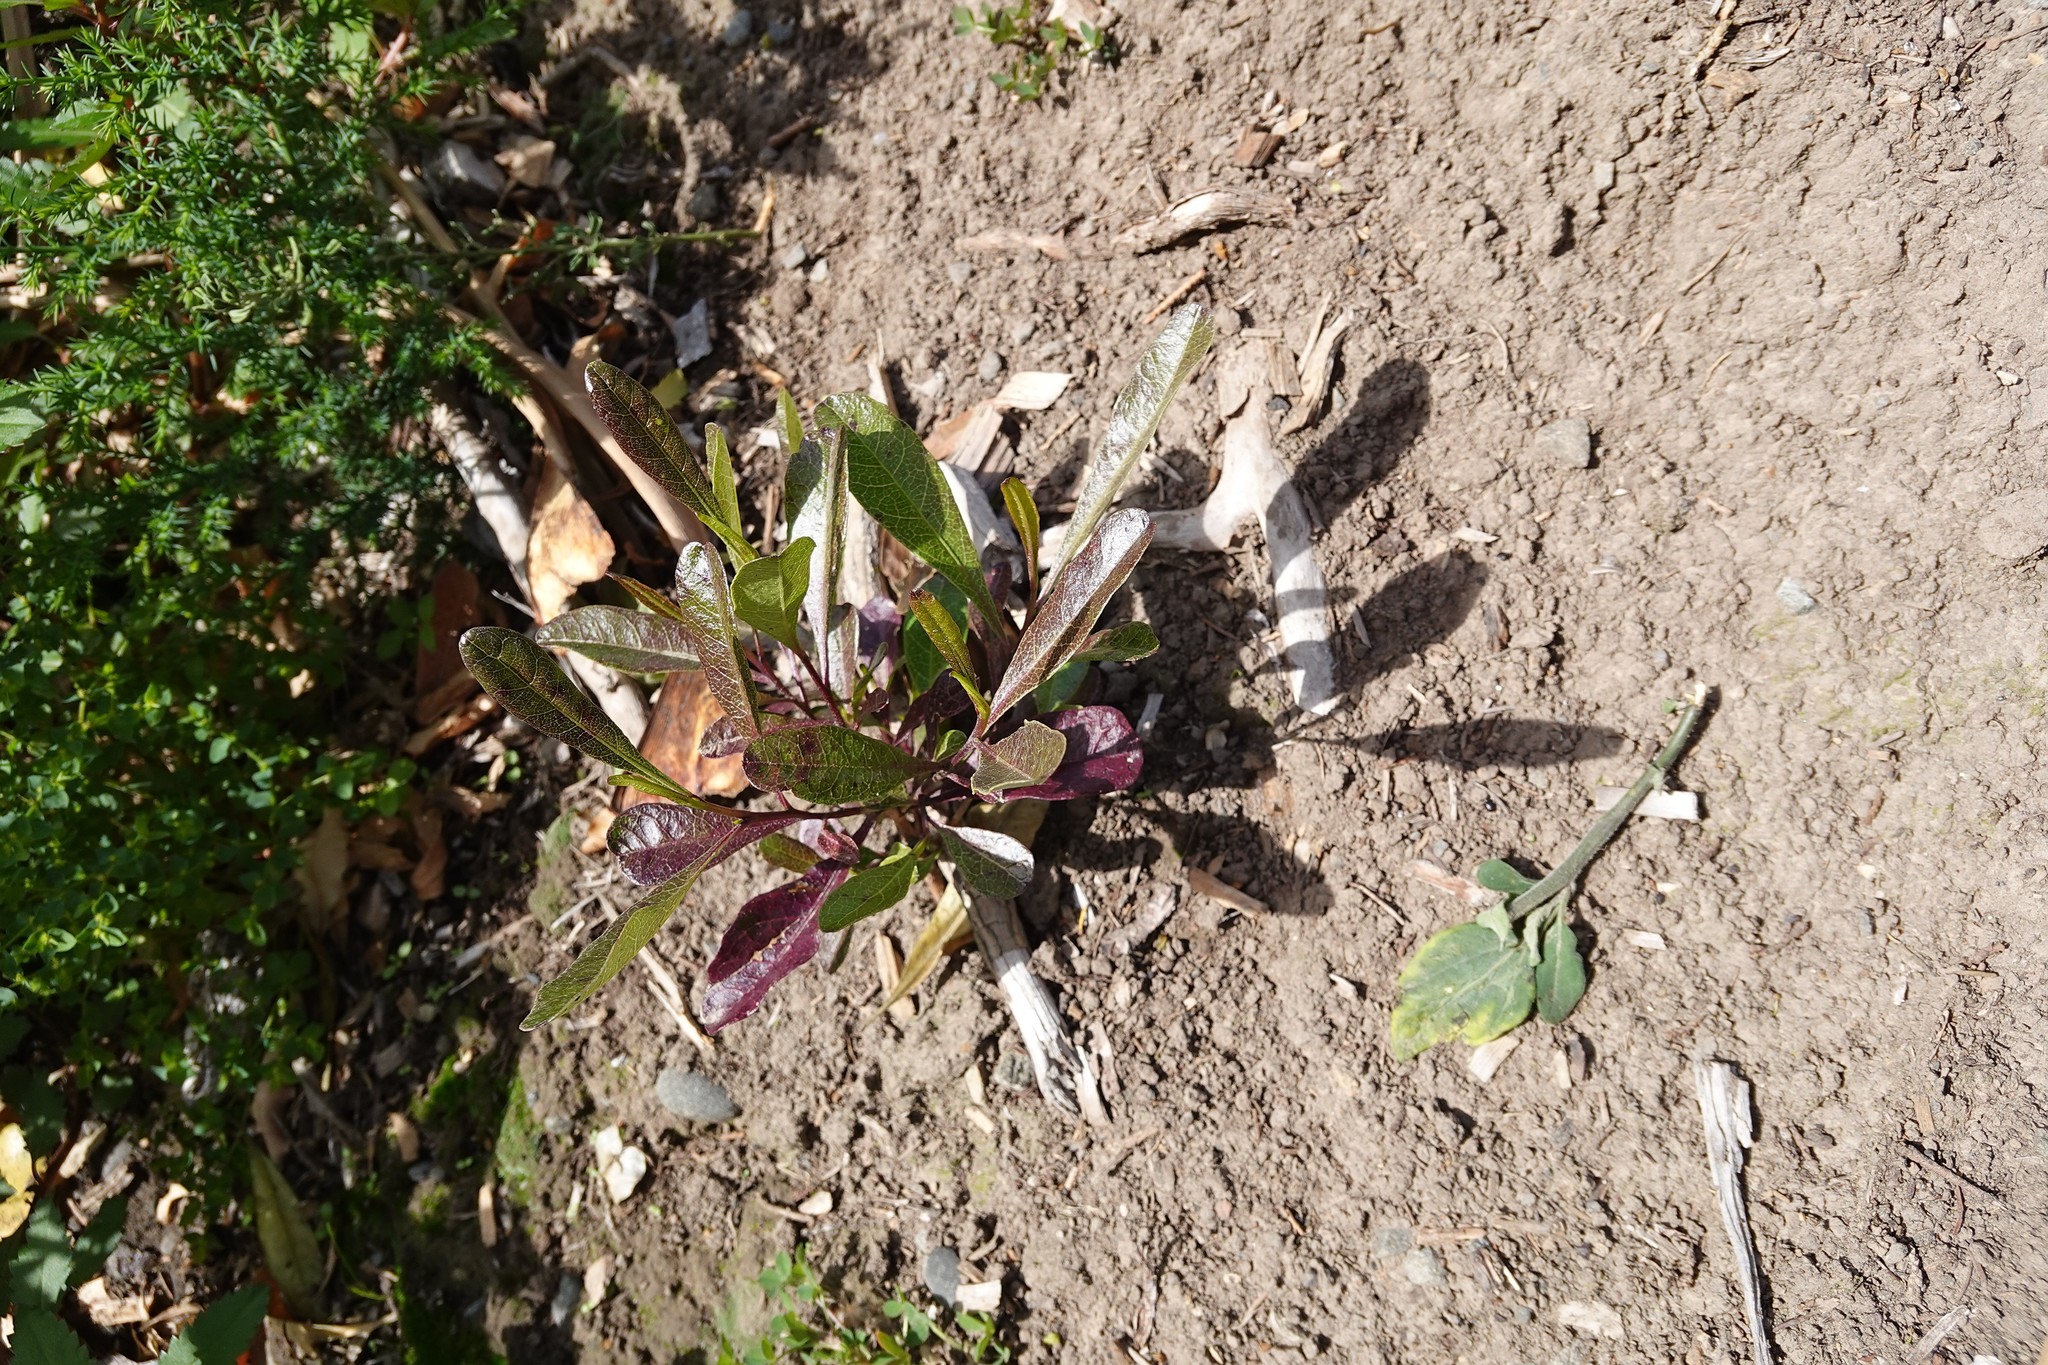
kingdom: Plantae
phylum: Tracheophyta
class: Magnoliopsida
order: Sapindales
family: Sapindaceae
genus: Dodonaea
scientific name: Dodonaea viscosa
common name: Hopbush
